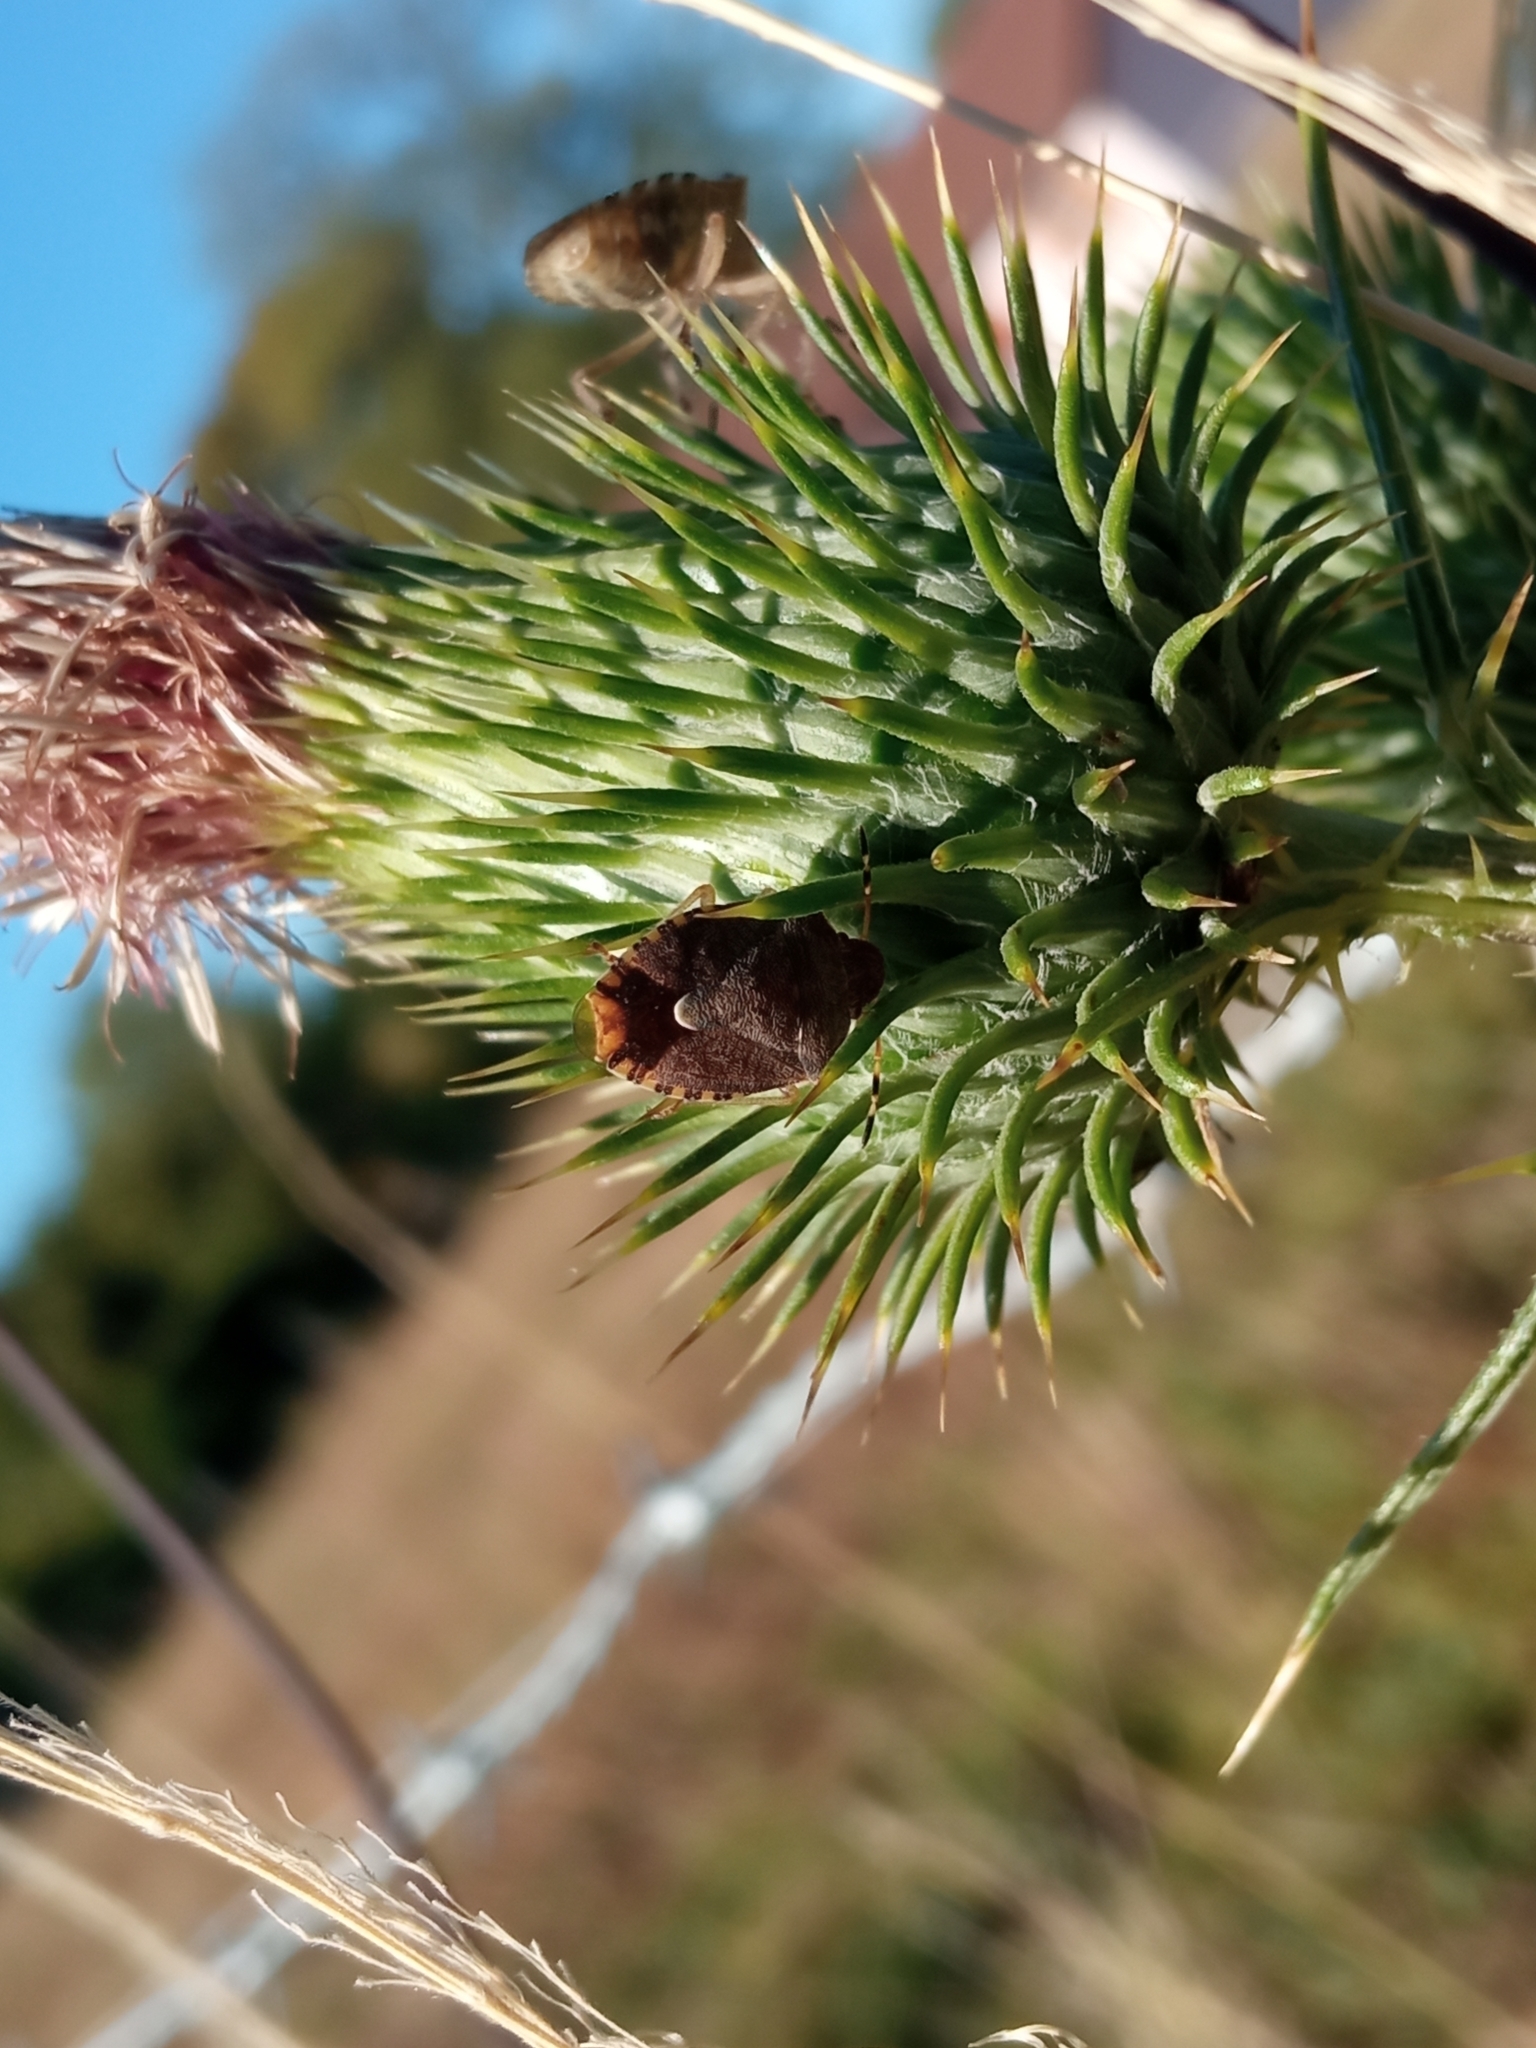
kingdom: Animalia
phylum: Arthropoda
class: Insecta
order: Hemiptera
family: Pentatomidae
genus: Holcostethus
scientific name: Holcostethus strictus
